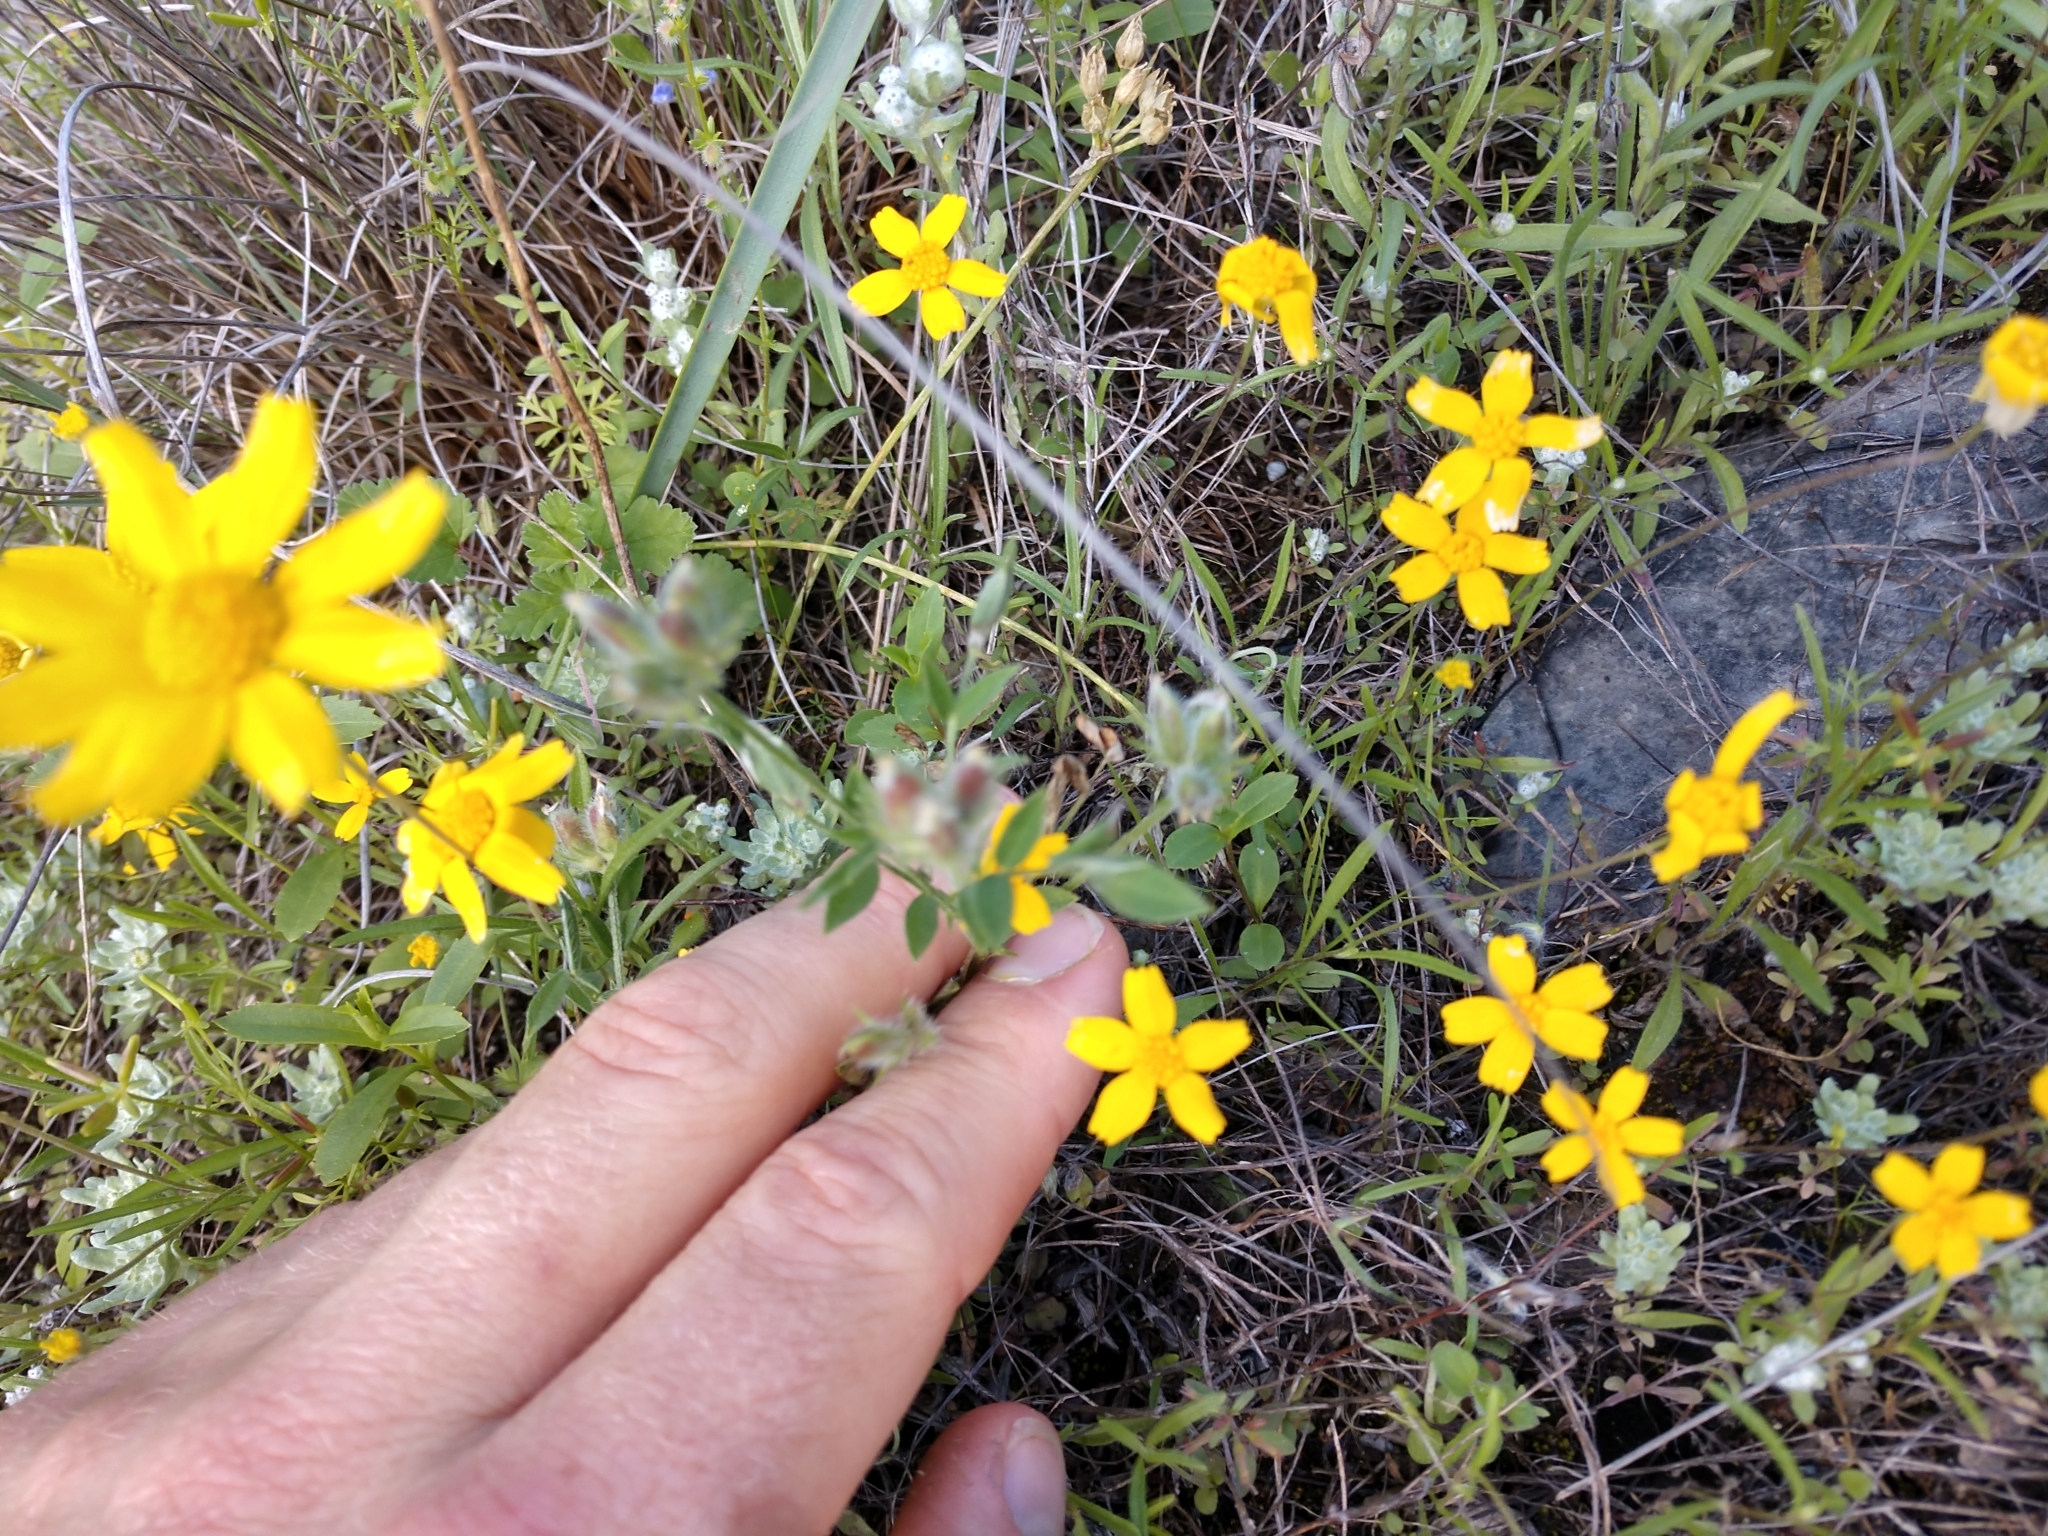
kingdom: Plantae
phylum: Tracheophyta
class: Magnoliopsida
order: Fabales
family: Fabaceae
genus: Astragalus
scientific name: Astragalus wrightii
